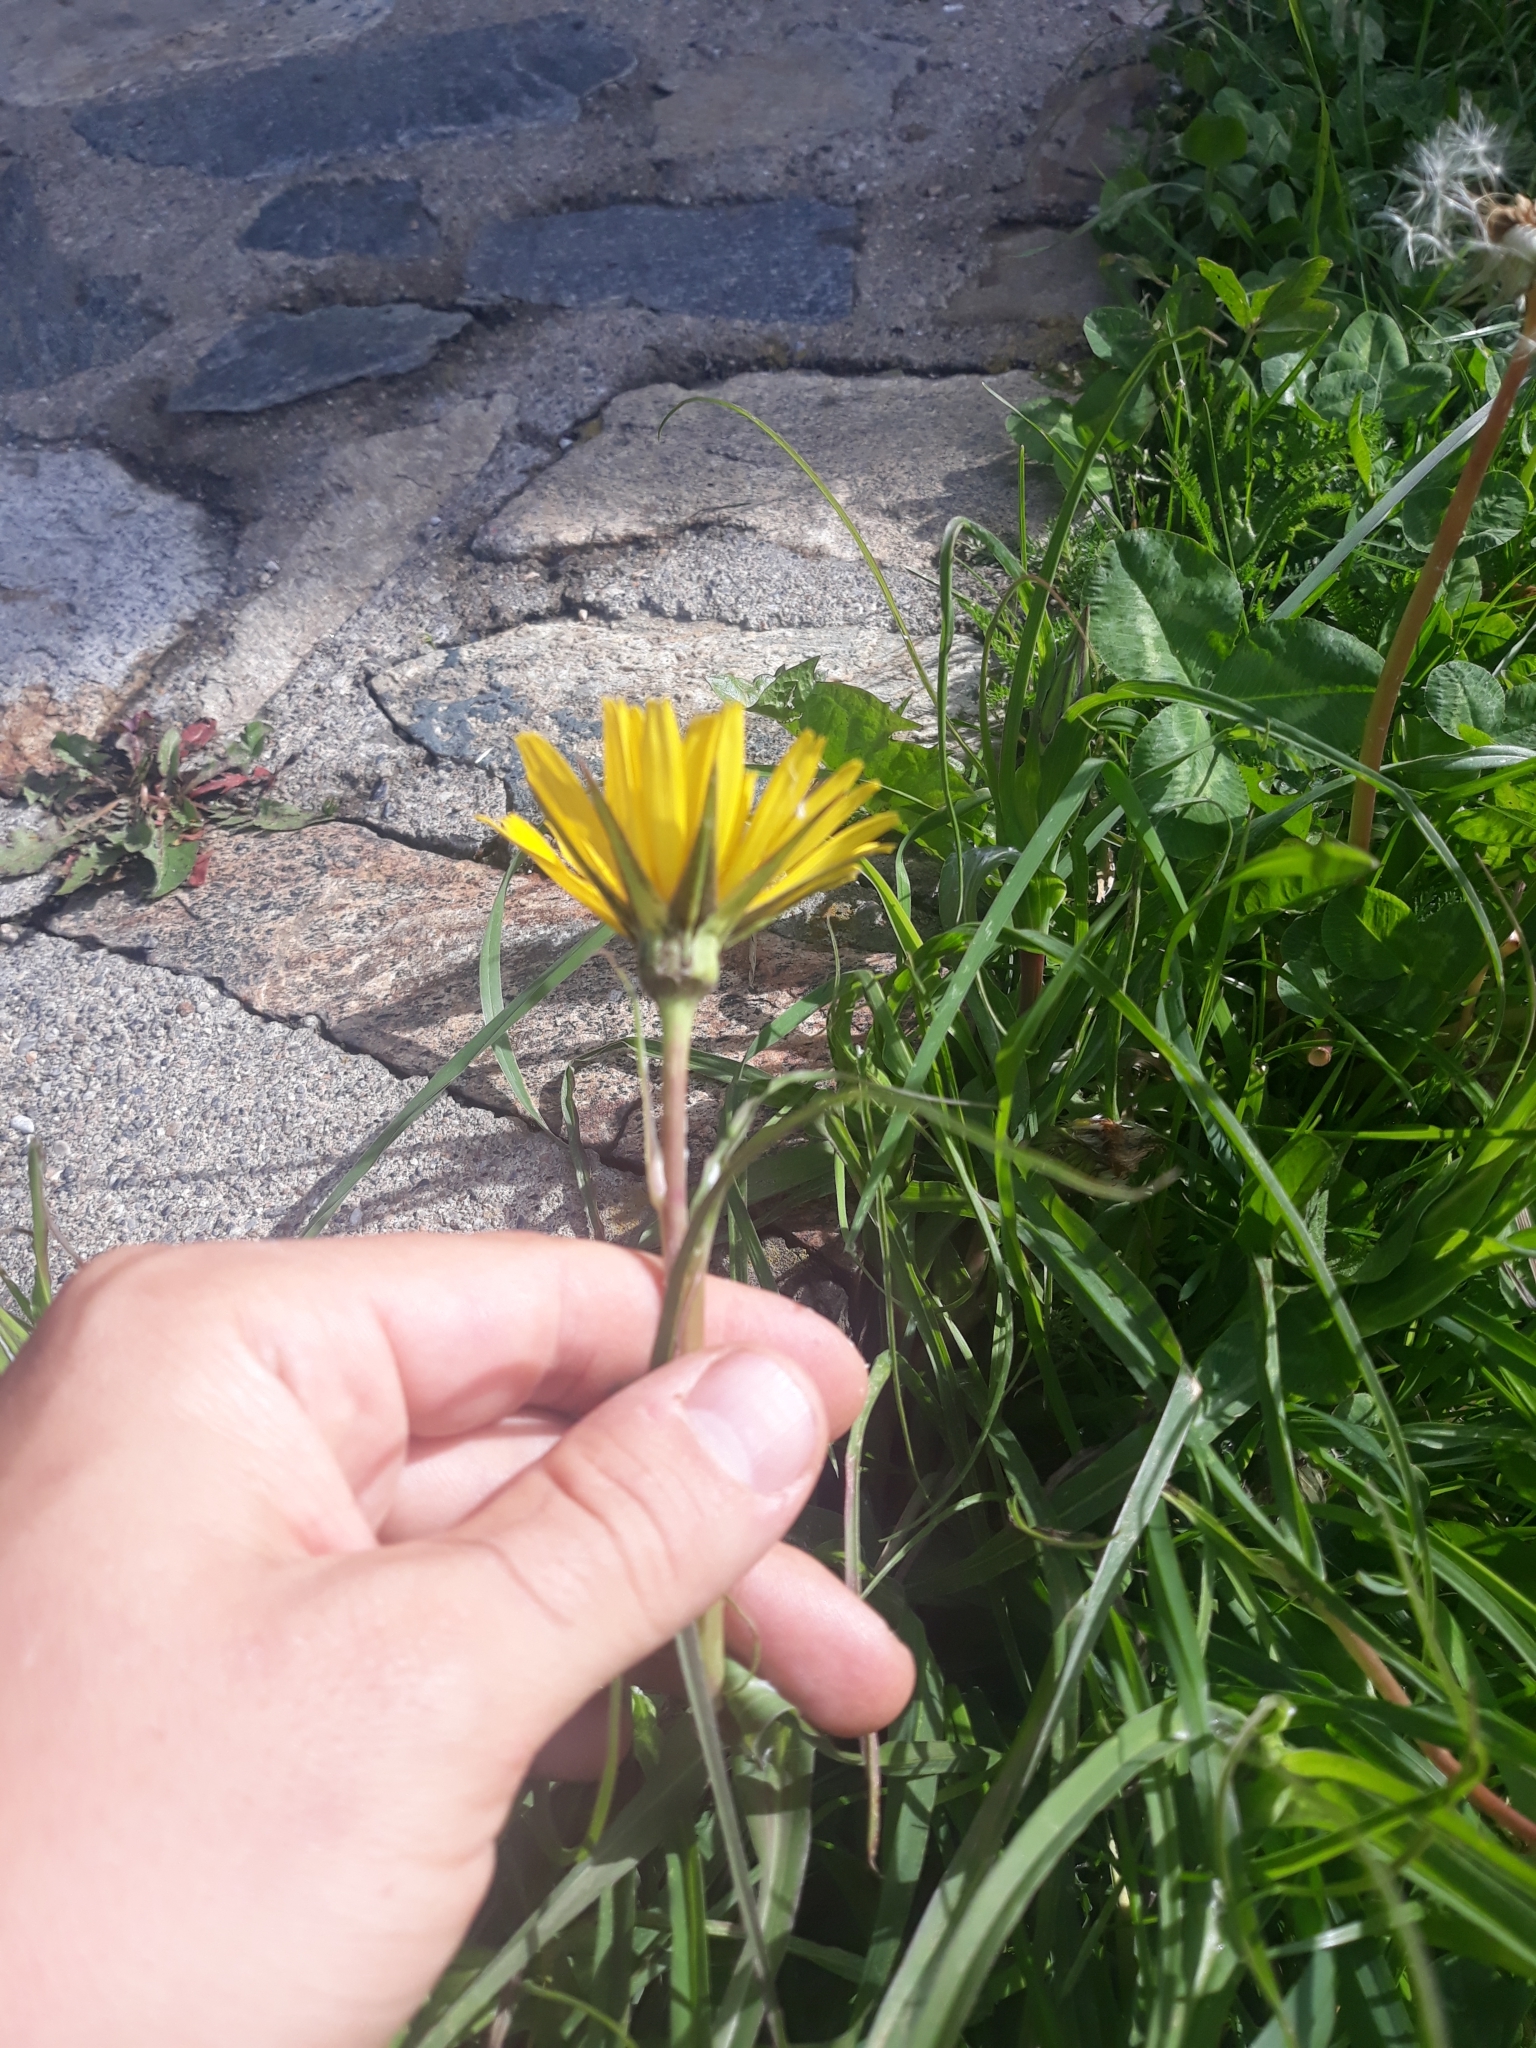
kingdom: Plantae
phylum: Tracheophyta
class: Magnoliopsida
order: Asterales
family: Asteraceae
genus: Tragopogon
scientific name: Tragopogon orientalis
